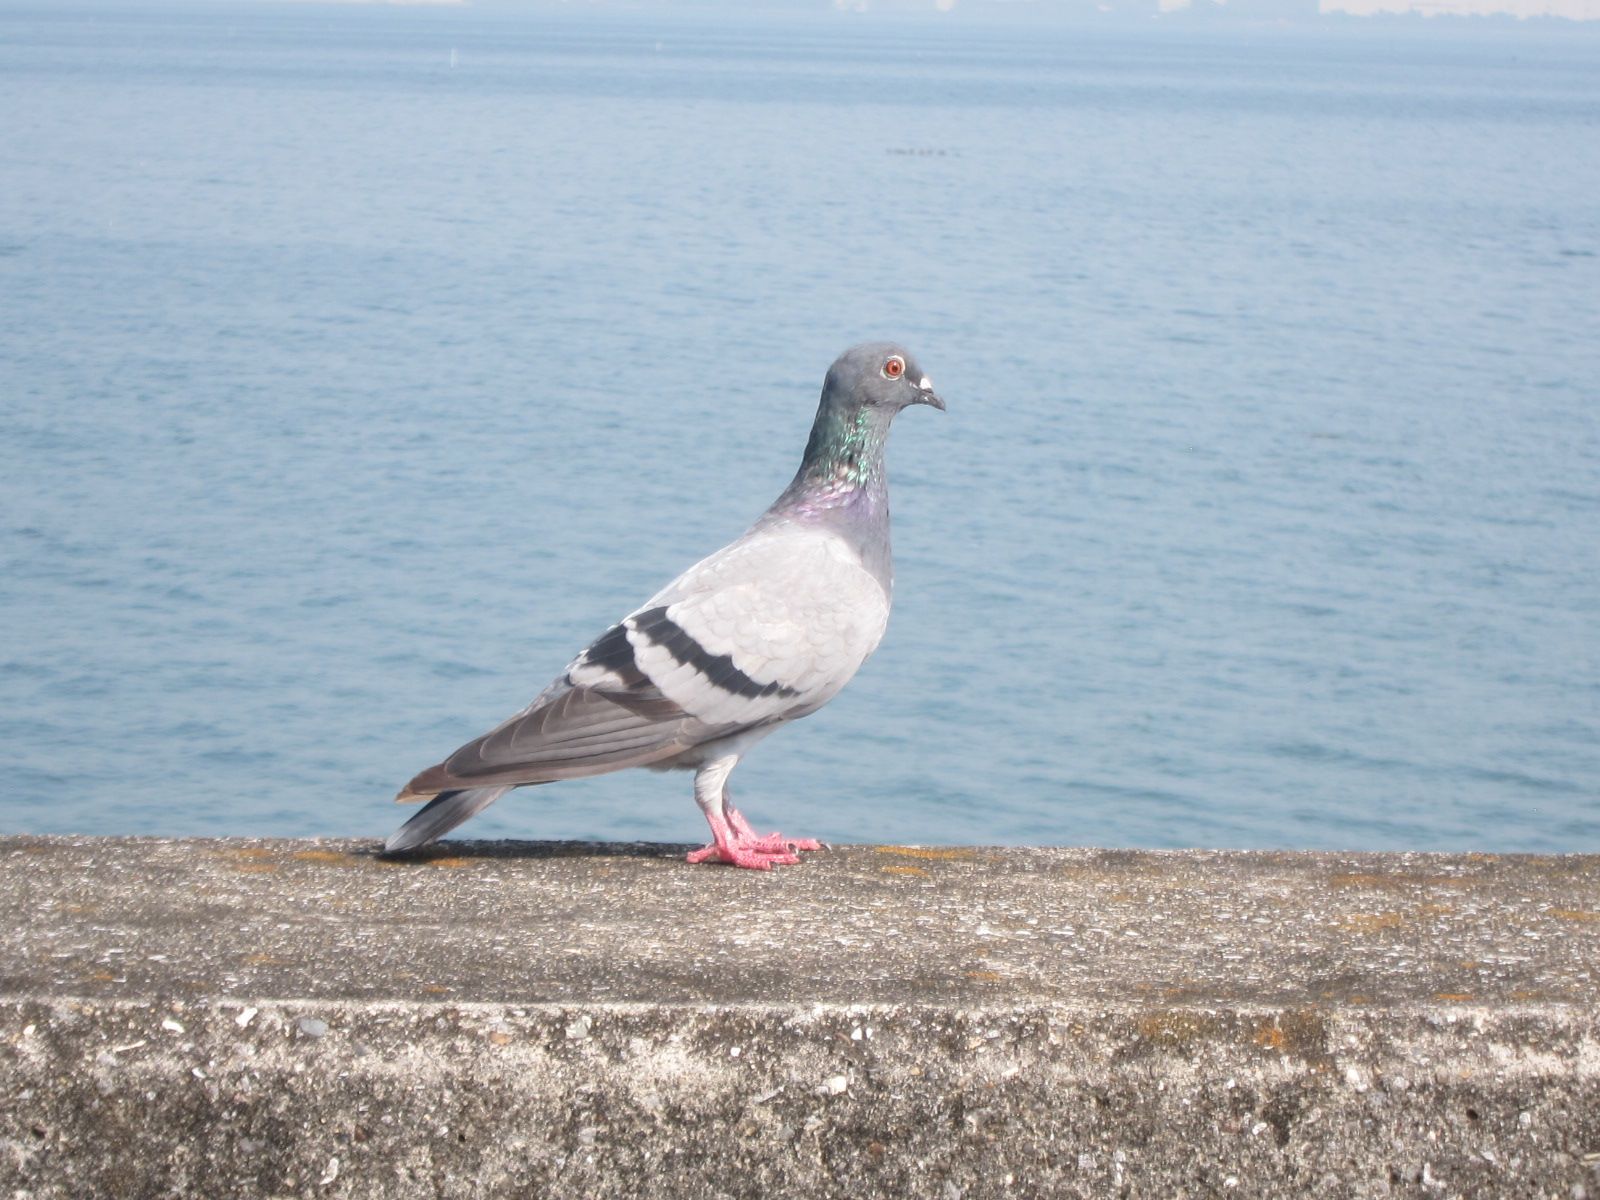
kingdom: Animalia
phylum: Chordata
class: Aves
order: Columbiformes
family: Columbidae
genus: Columba
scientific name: Columba livia
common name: Rock pigeon
